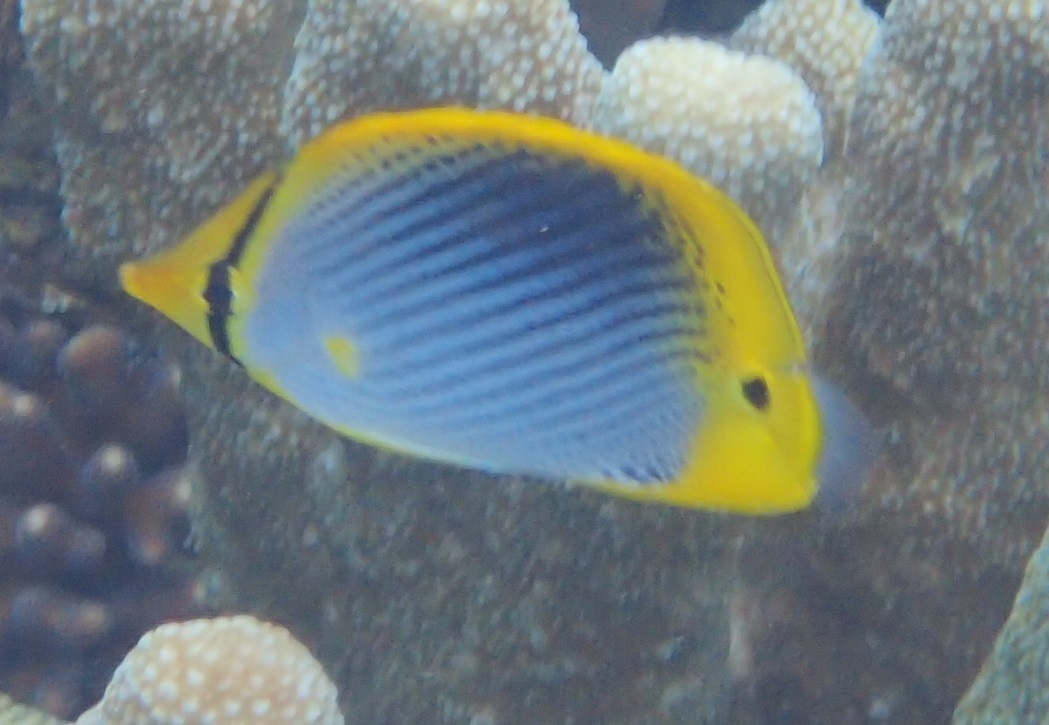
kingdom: Animalia
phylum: Chordata
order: Perciformes
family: Chaetodontidae
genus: Chaetodon
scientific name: Chaetodon ocellicaudus
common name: Spot-tail butterflyfish
